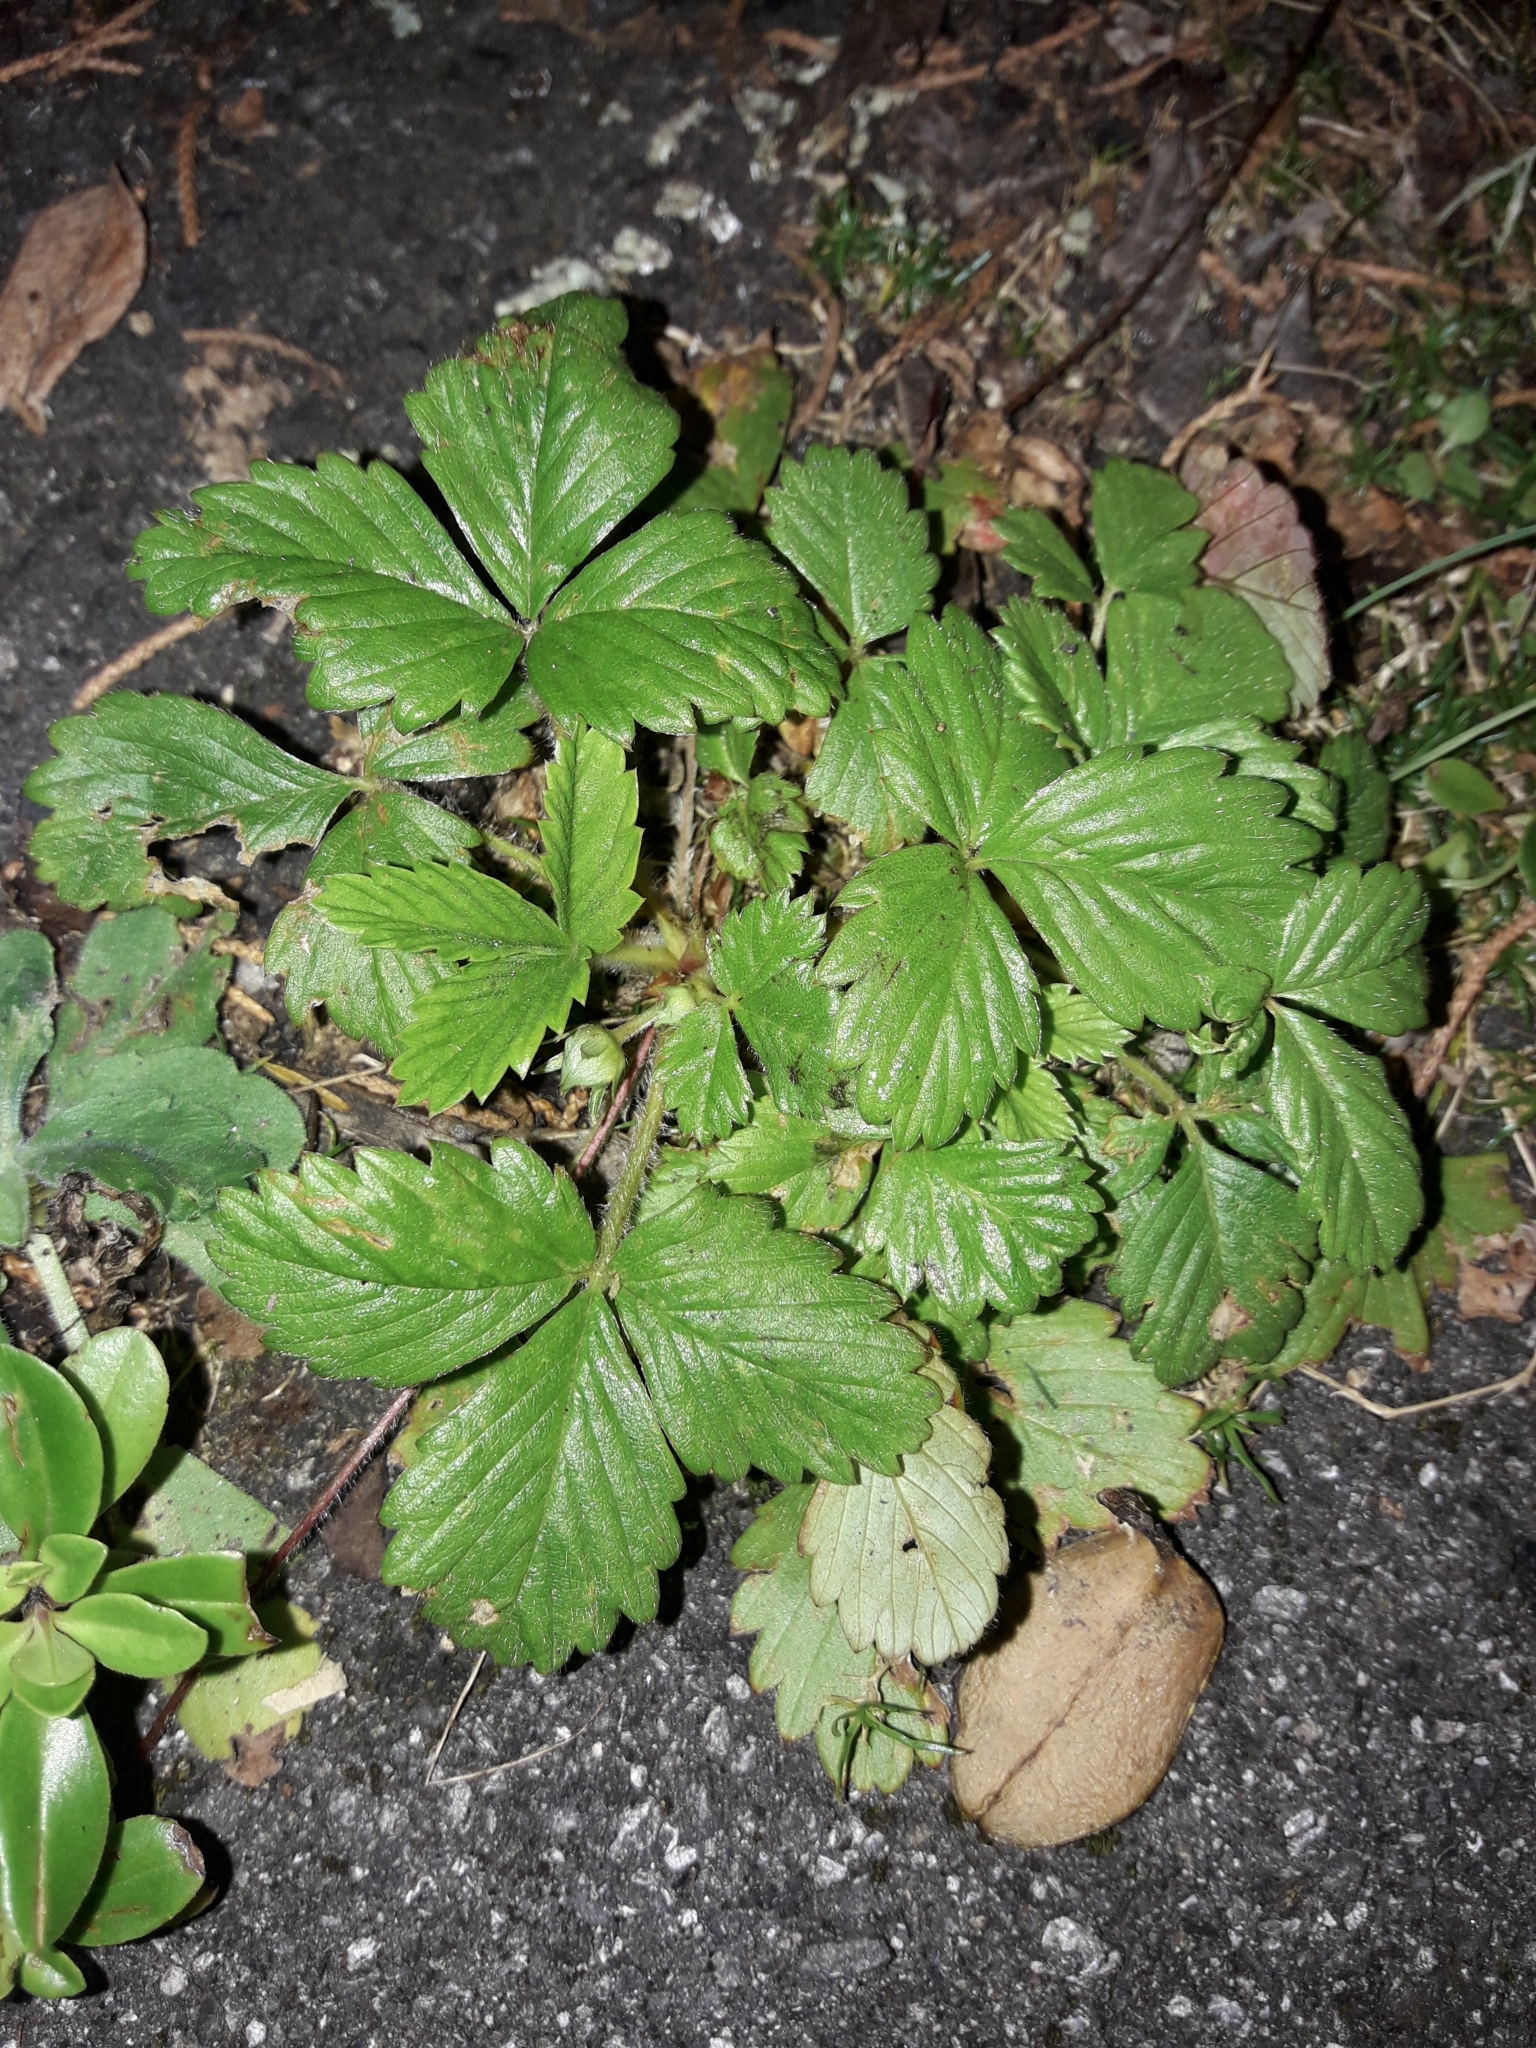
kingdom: Plantae
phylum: Tracheophyta
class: Magnoliopsida
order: Rosales
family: Rosaceae
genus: Fragaria
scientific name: Fragaria vesca
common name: Wild strawberry
